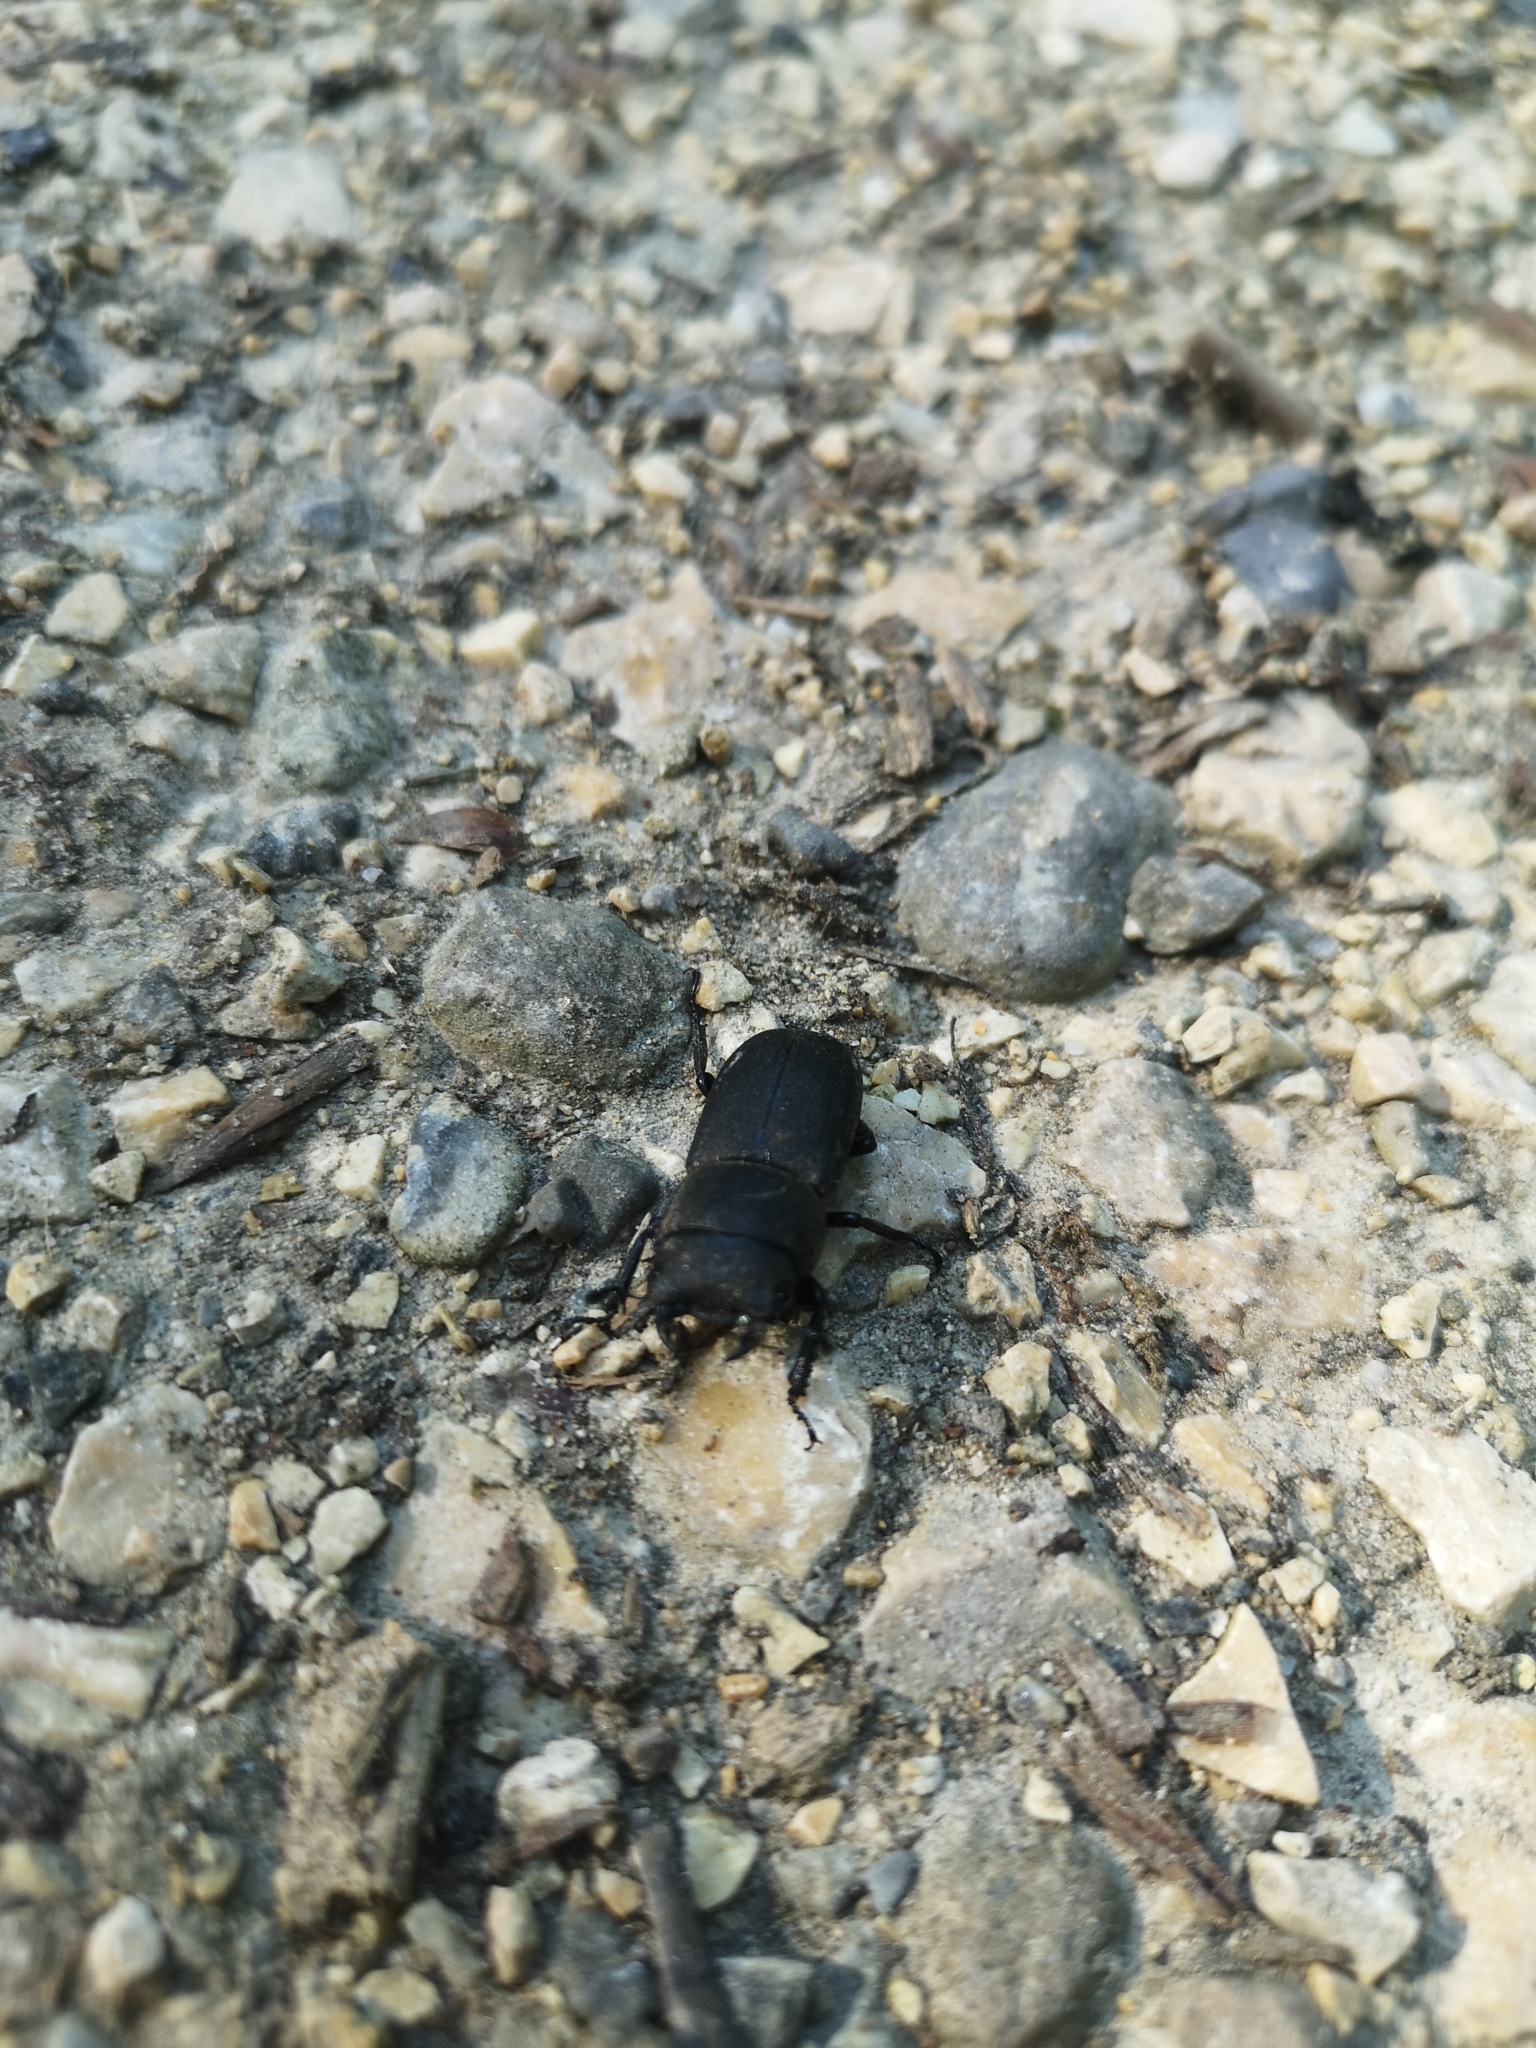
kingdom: Animalia
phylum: Arthropoda
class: Insecta
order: Coleoptera
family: Lucanidae
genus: Dorcus
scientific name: Dorcus parallelipipedus
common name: Lesser stag beetle
